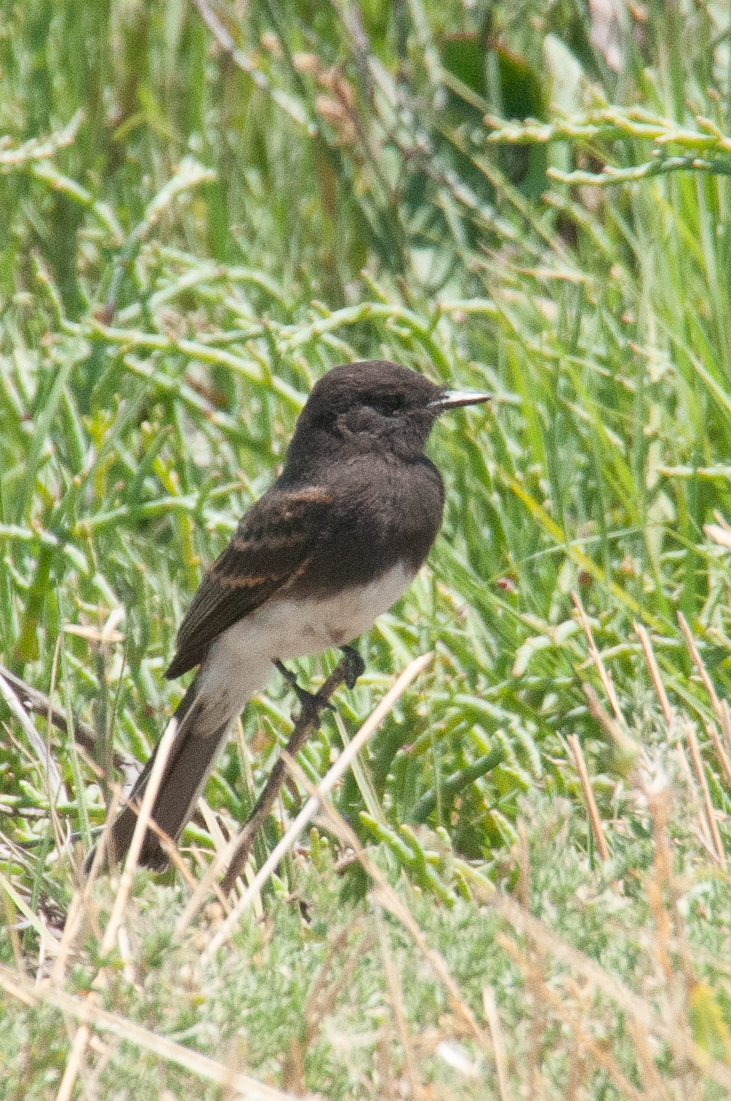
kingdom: Animalia
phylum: Chordata
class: Aves
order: Passeriformes
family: Tyrannidae
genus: Sayornis
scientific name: Sayornis nigricans
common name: Black phoebe
